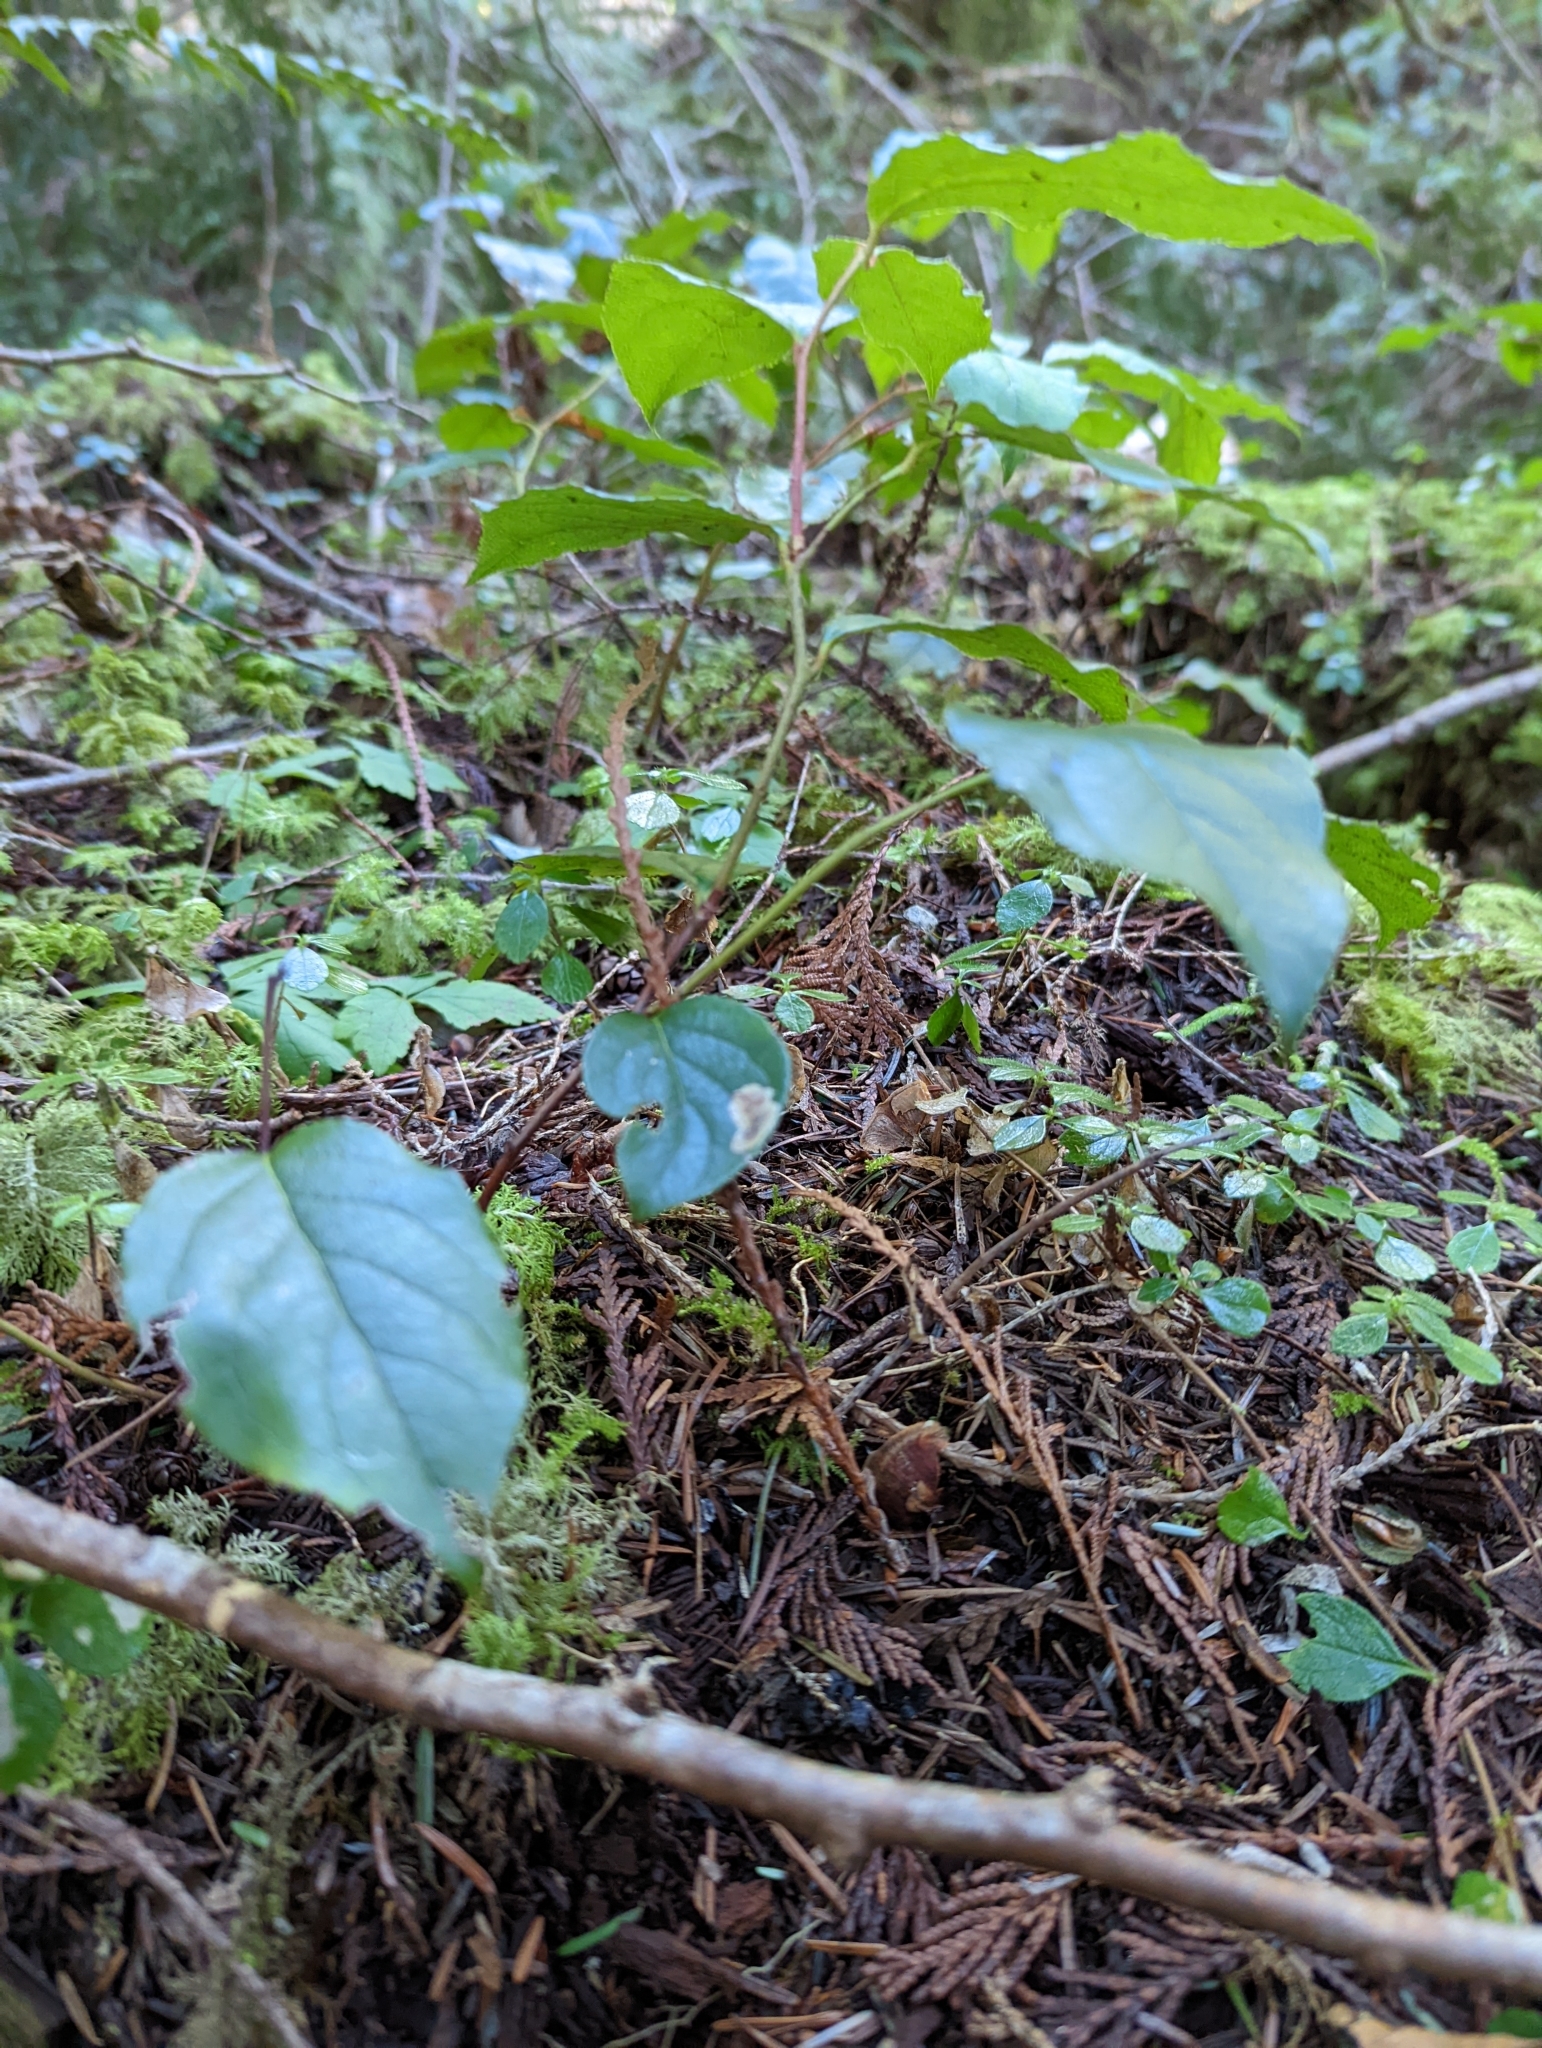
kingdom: Plantae
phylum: Tracheophyta
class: Magnoliopsida
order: Ericales
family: Ericaceae
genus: Gaultheria
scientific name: Gaultheria shallon
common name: Shallon
